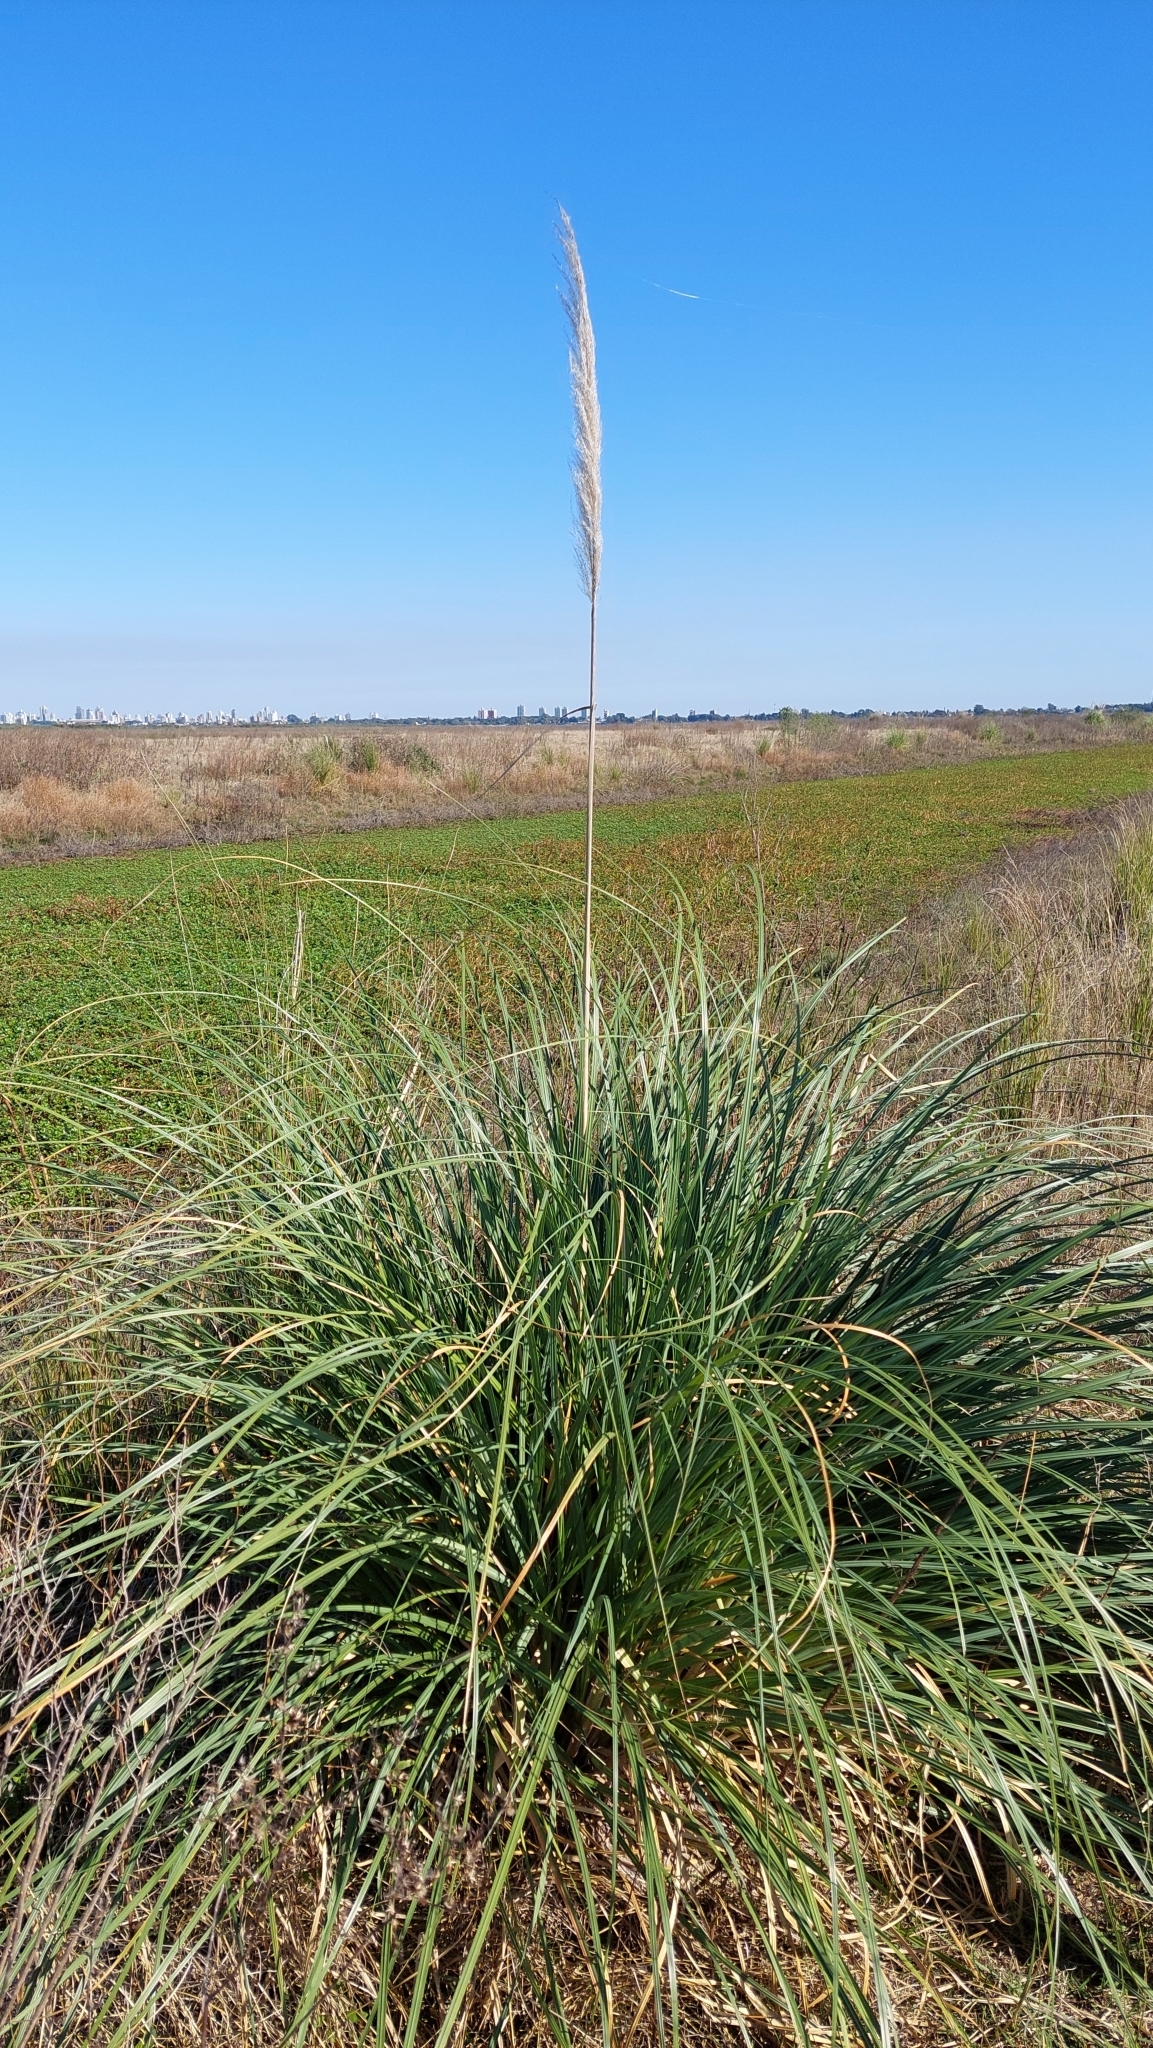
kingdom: Plantae
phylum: Tracheophyta
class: Liliopsida
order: Poales
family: Poaceae
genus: Cortaderia
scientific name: Cortaderia selloana
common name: Uruguayan pampas grass
